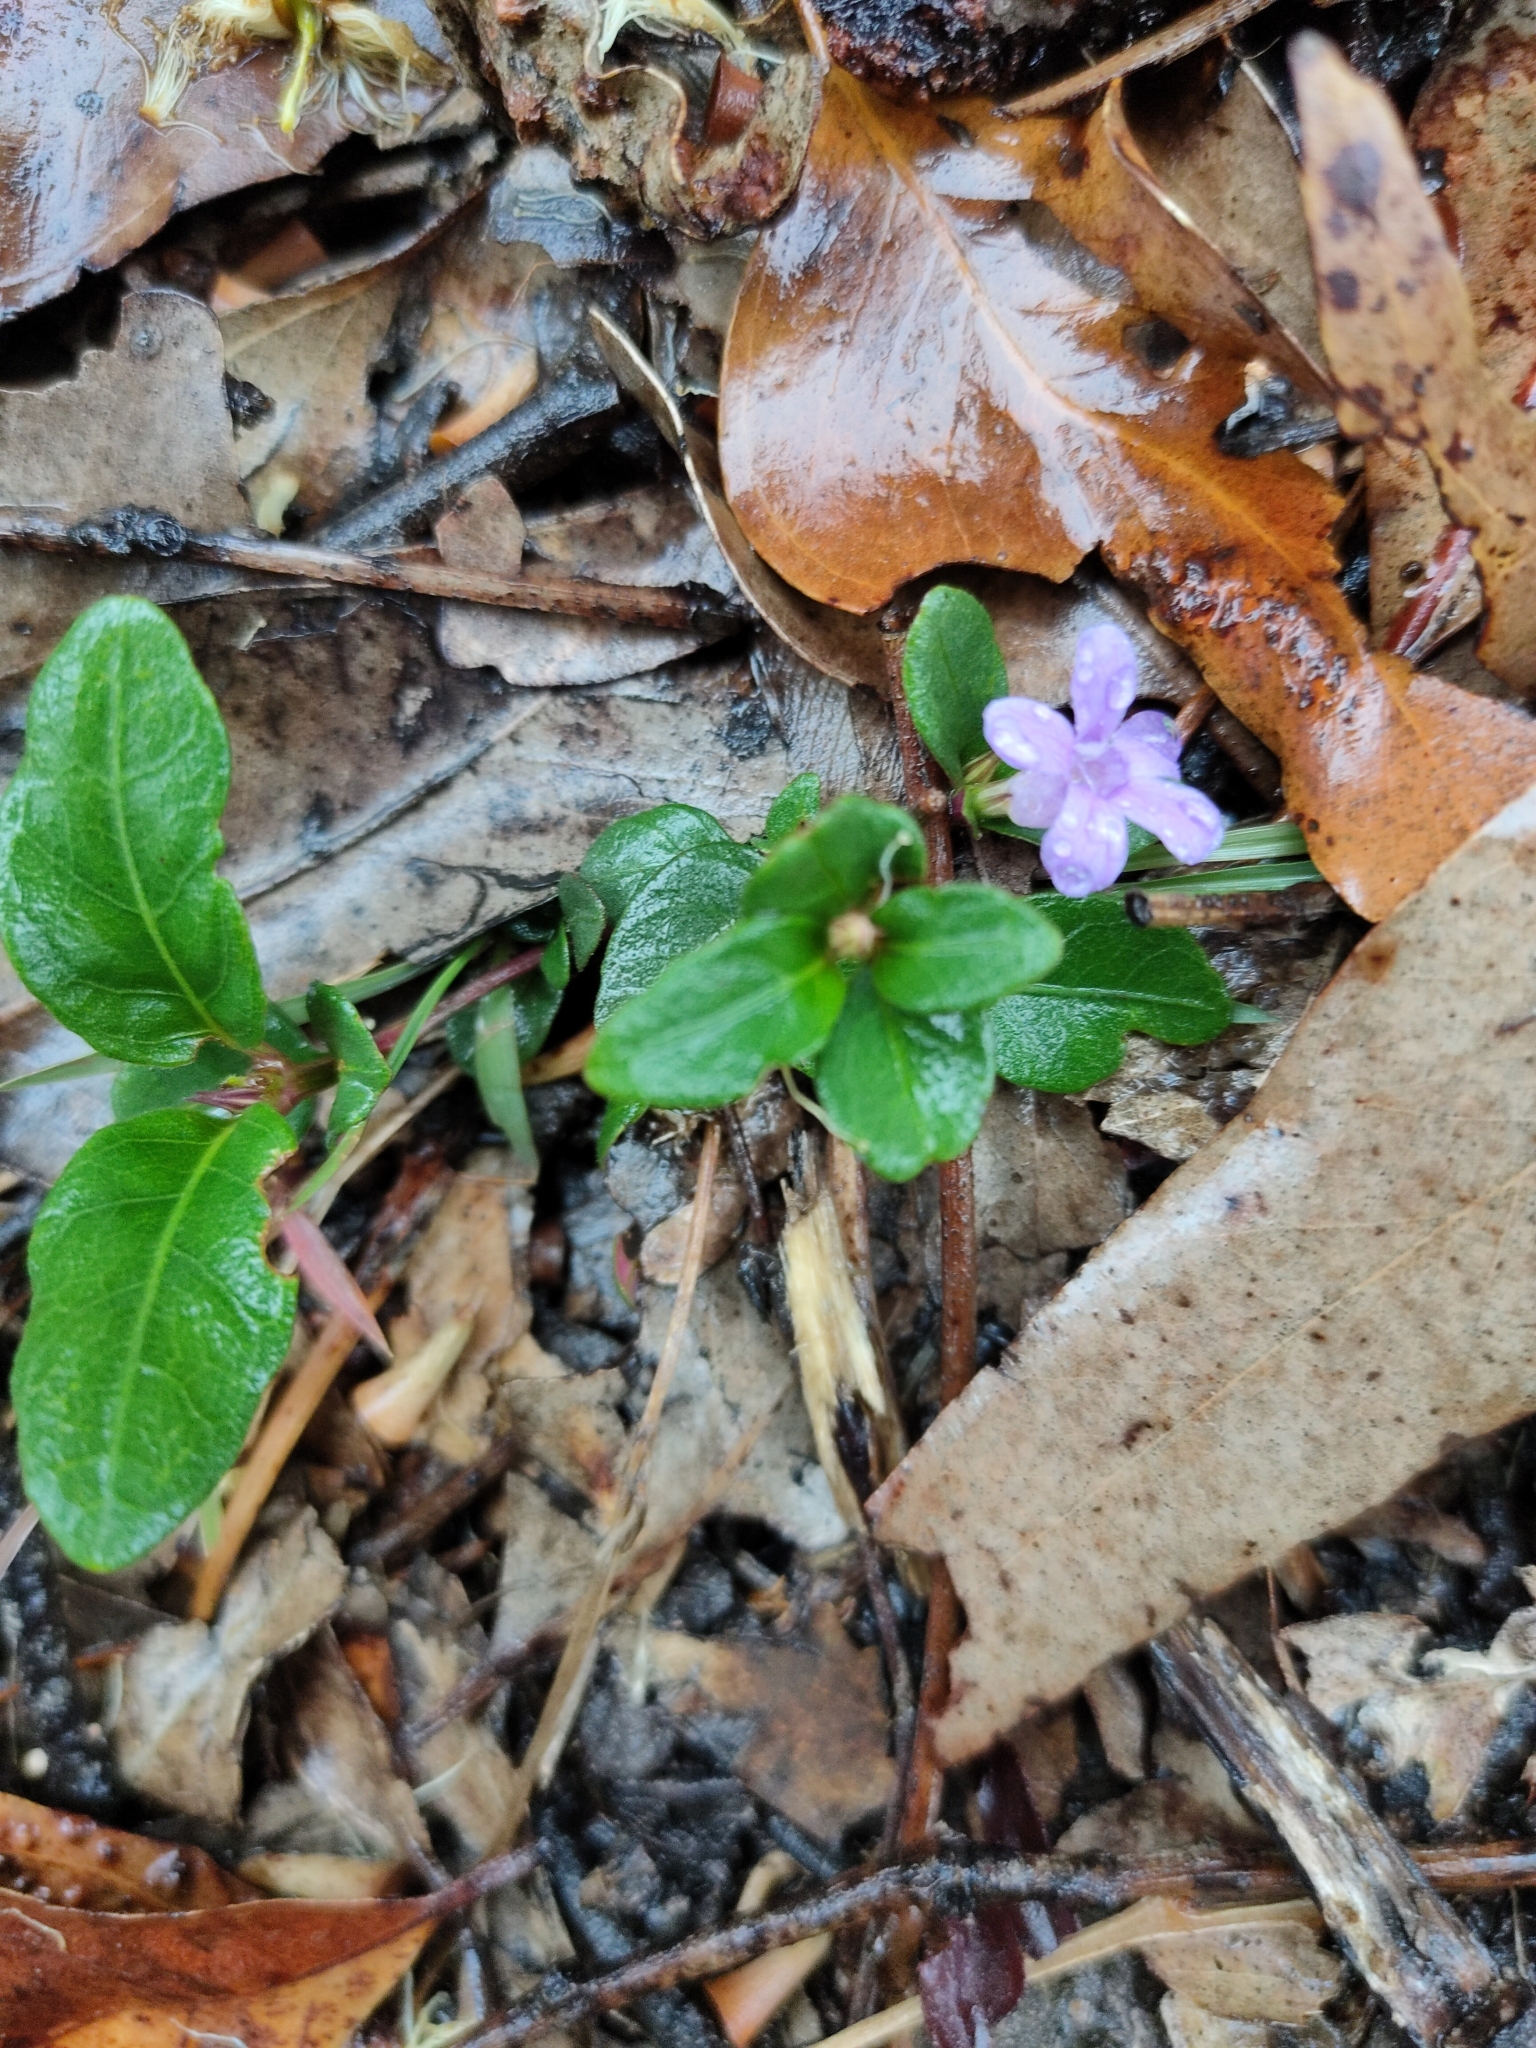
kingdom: Plantae
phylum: Tracheophyta
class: Magnoliopsida
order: Lamiales
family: Acanthaceae
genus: Brunoniella
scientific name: Brunoniella australis
